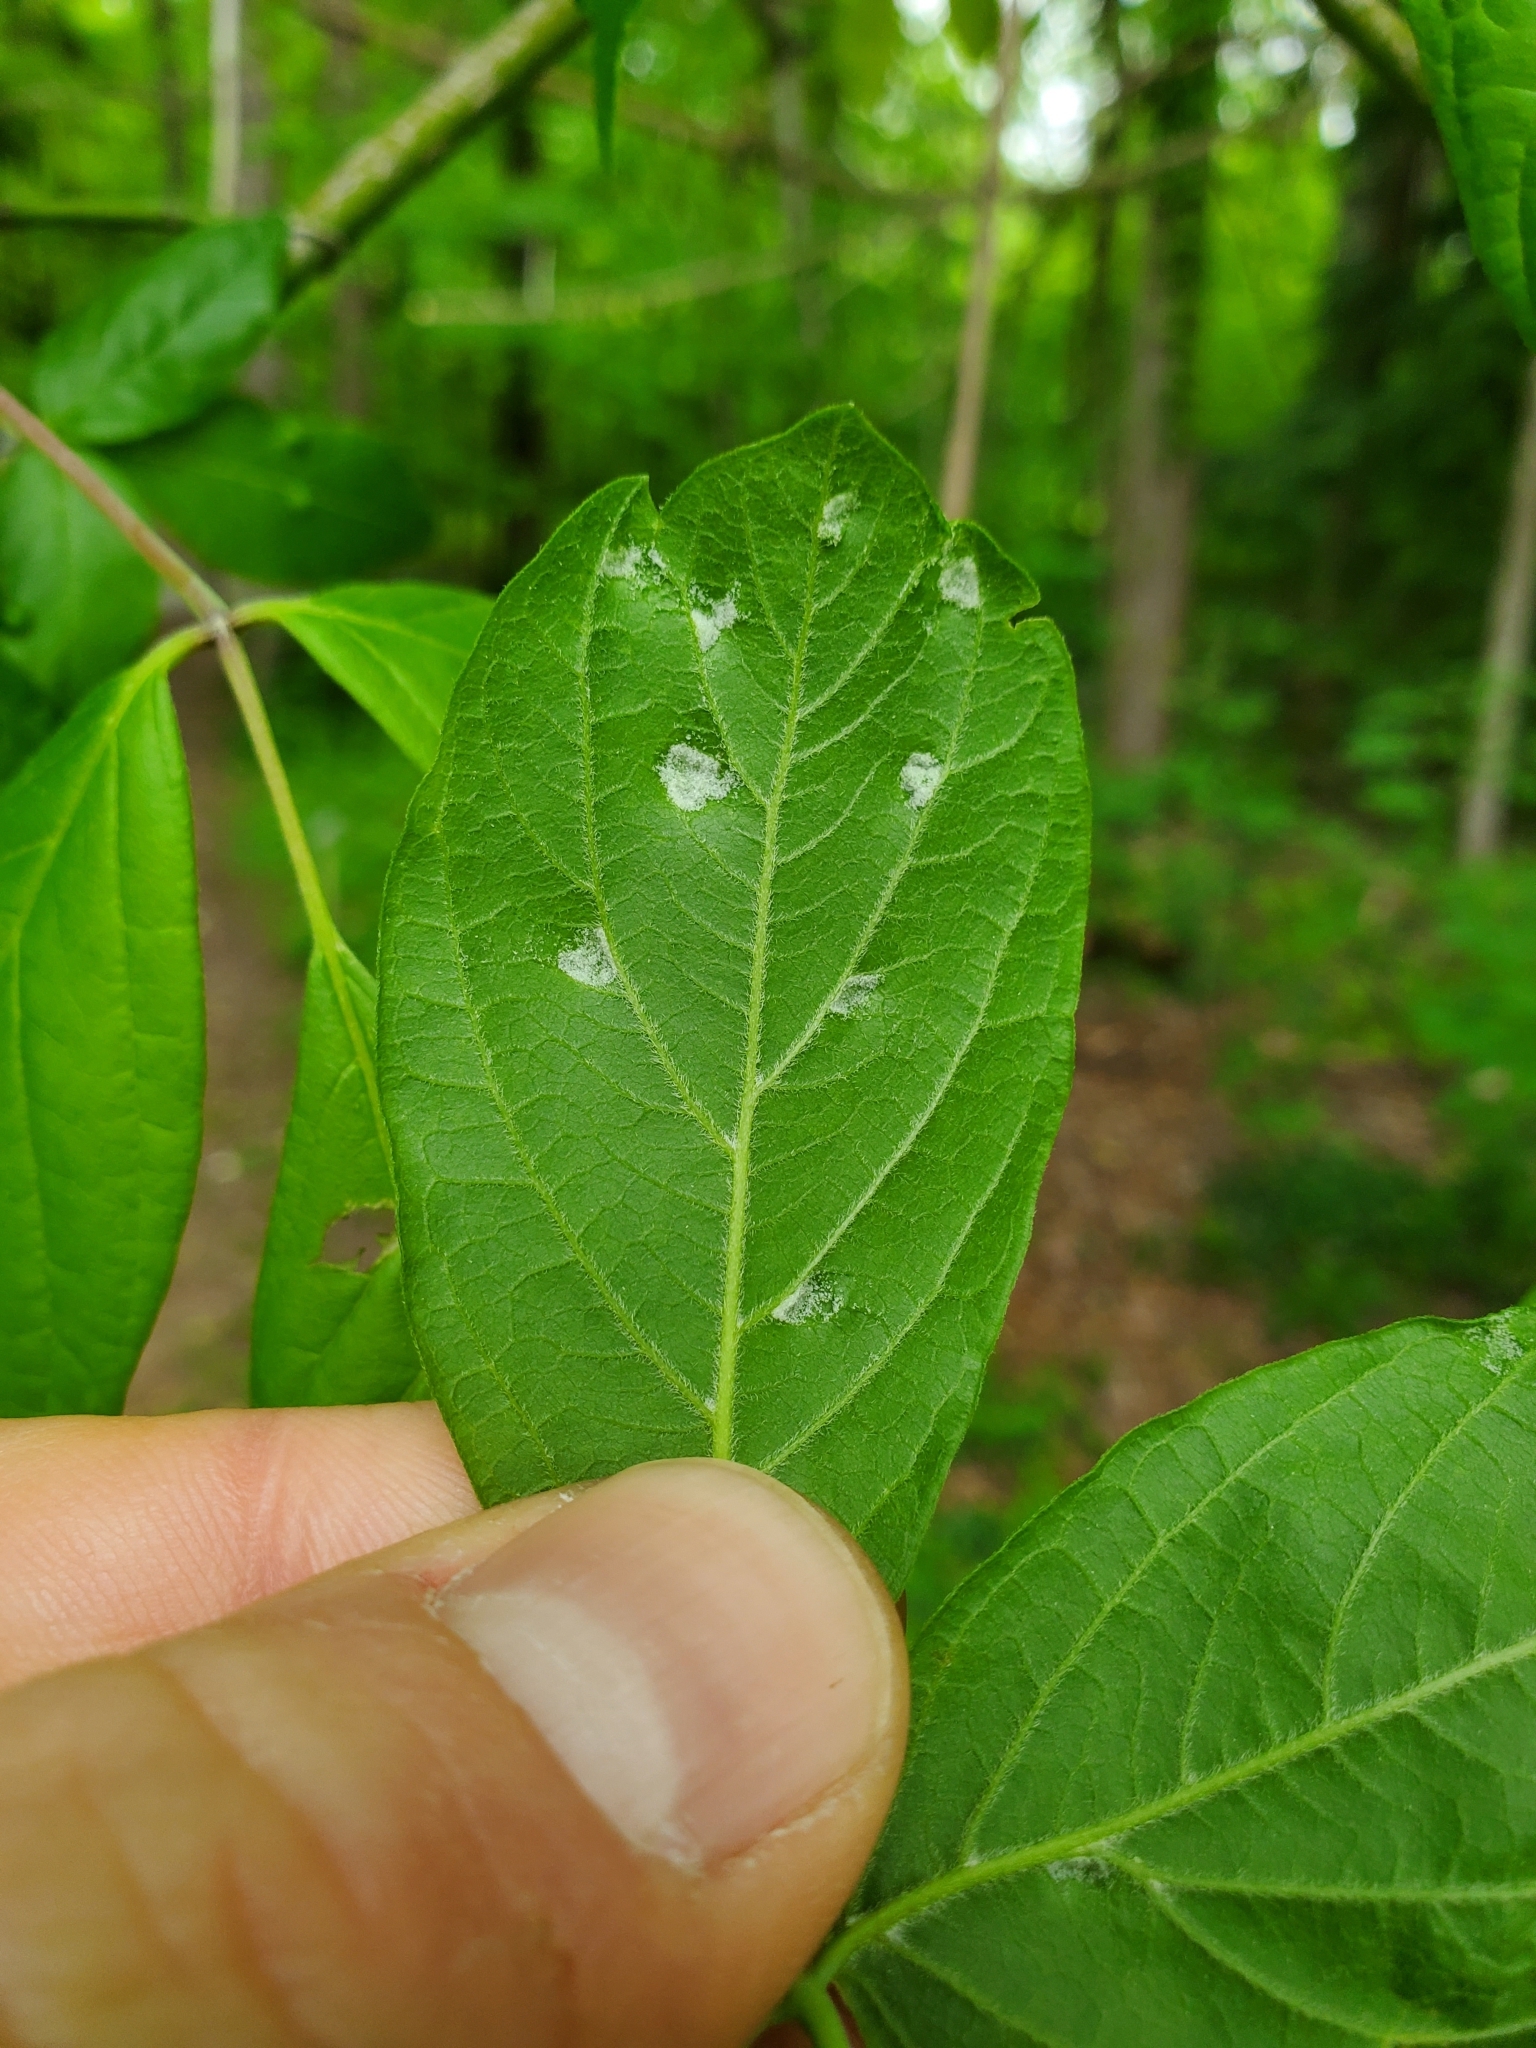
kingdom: Animalia
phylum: Arthropoda
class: Arachnida
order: Trombidiformes
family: Eriophyidae
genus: Aceria
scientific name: Aceria
